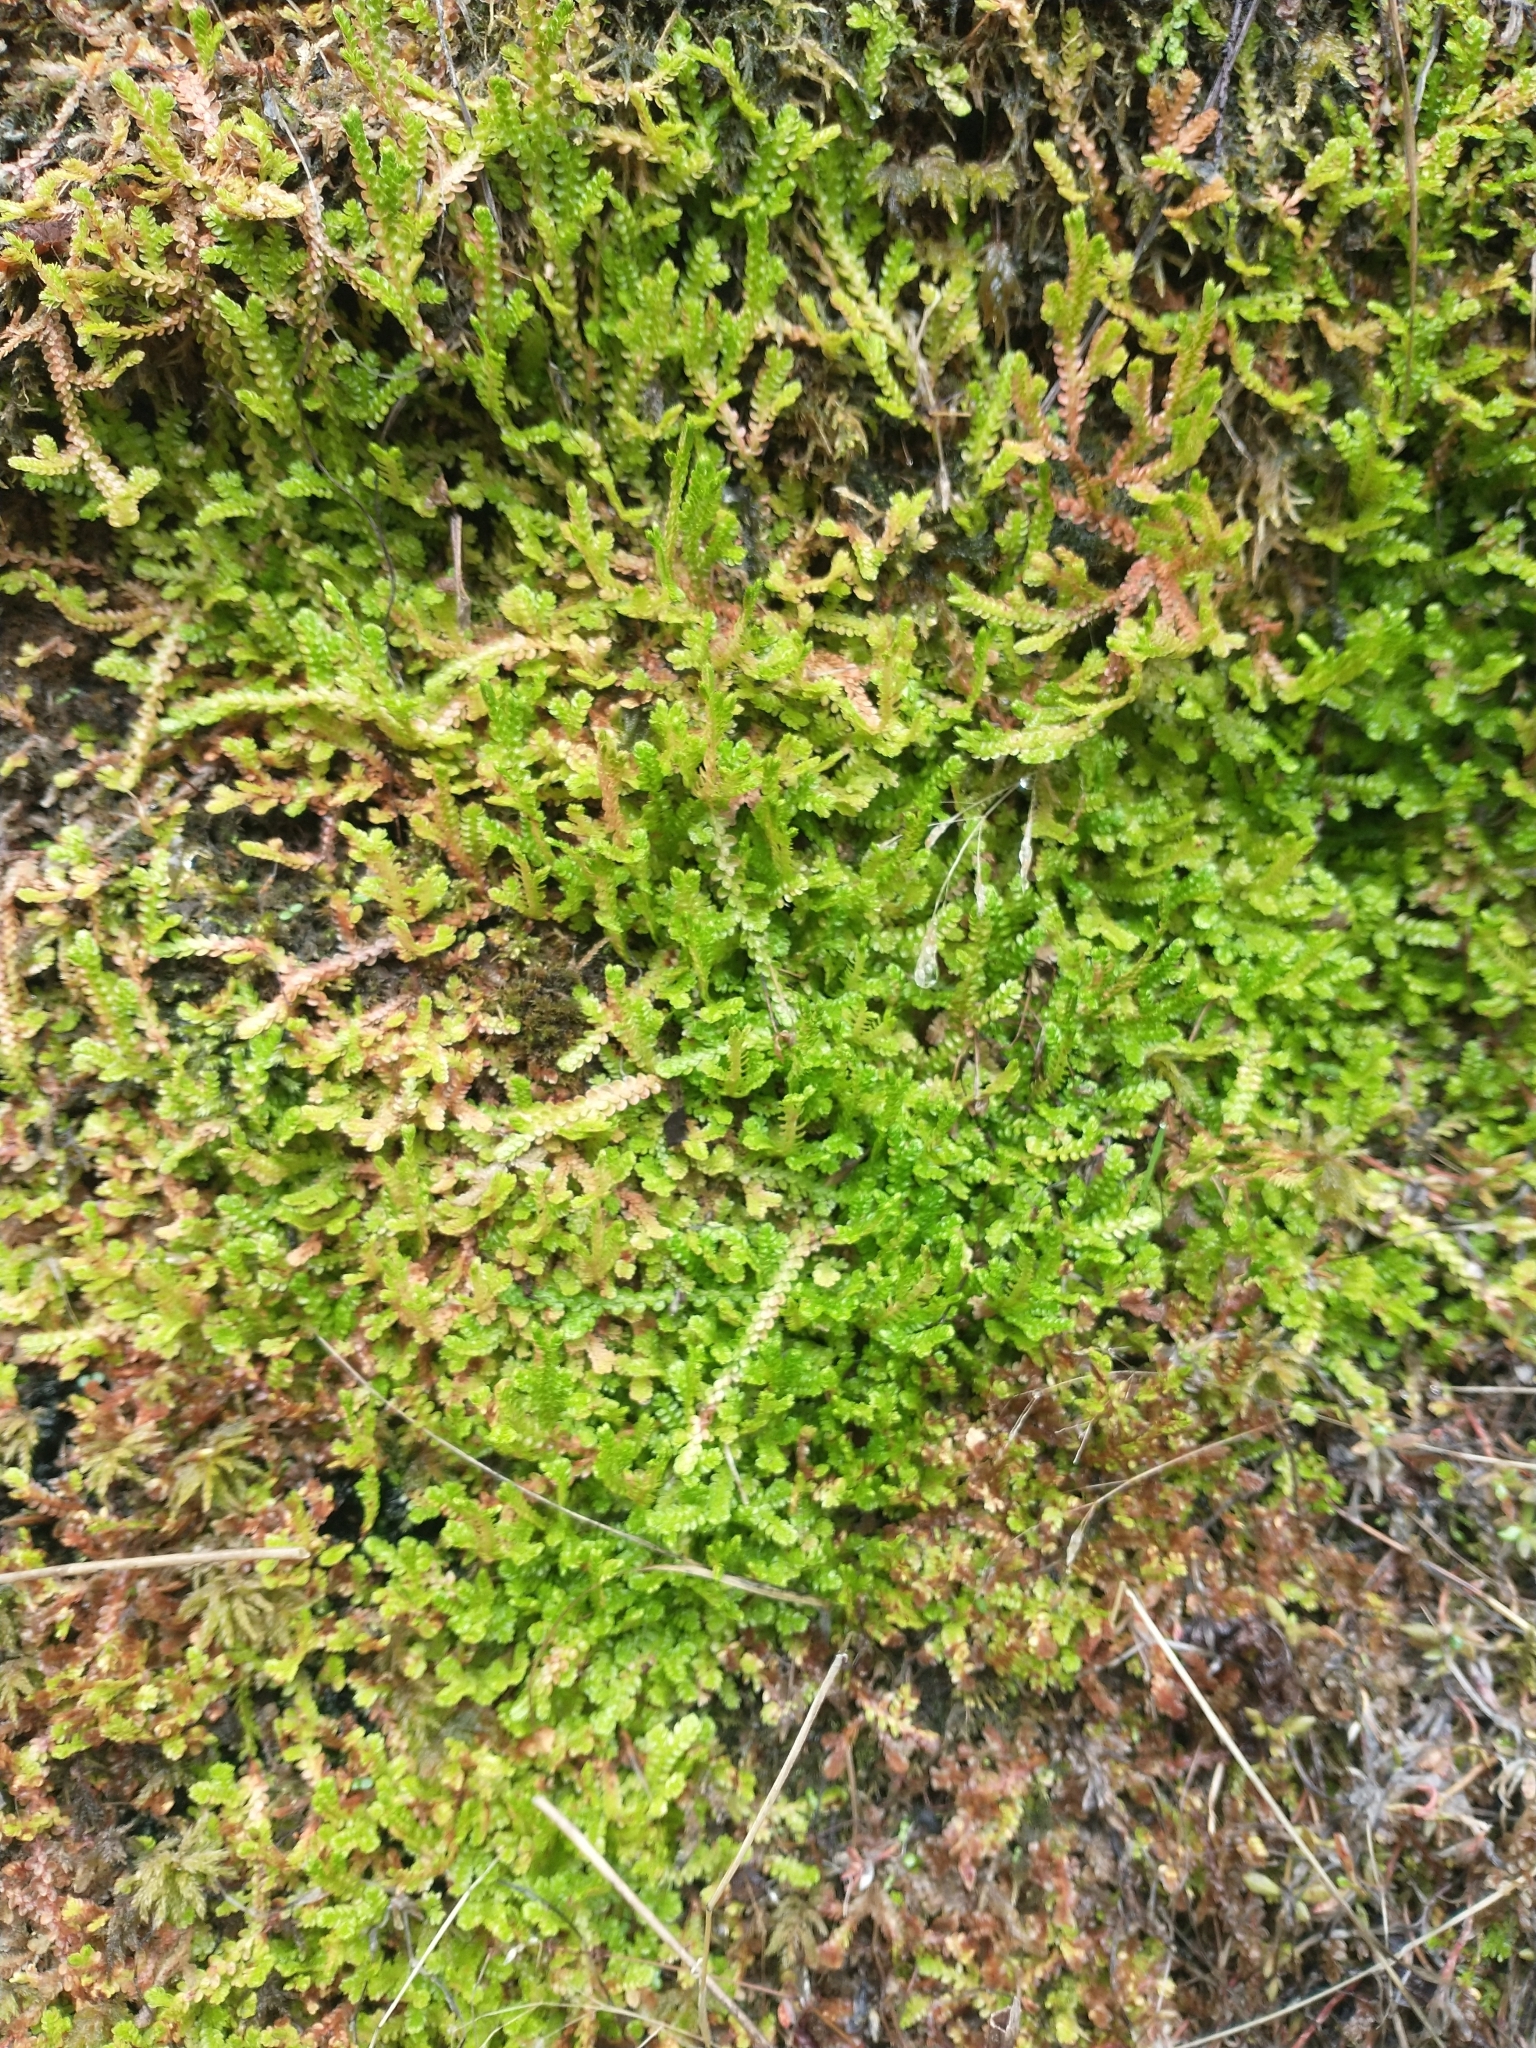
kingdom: Plantae
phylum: Tracheophyta
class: Lycopodiopsida
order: Selaginellales
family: Selaginellaceae
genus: Selaginella
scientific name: Selaginella douglasii
